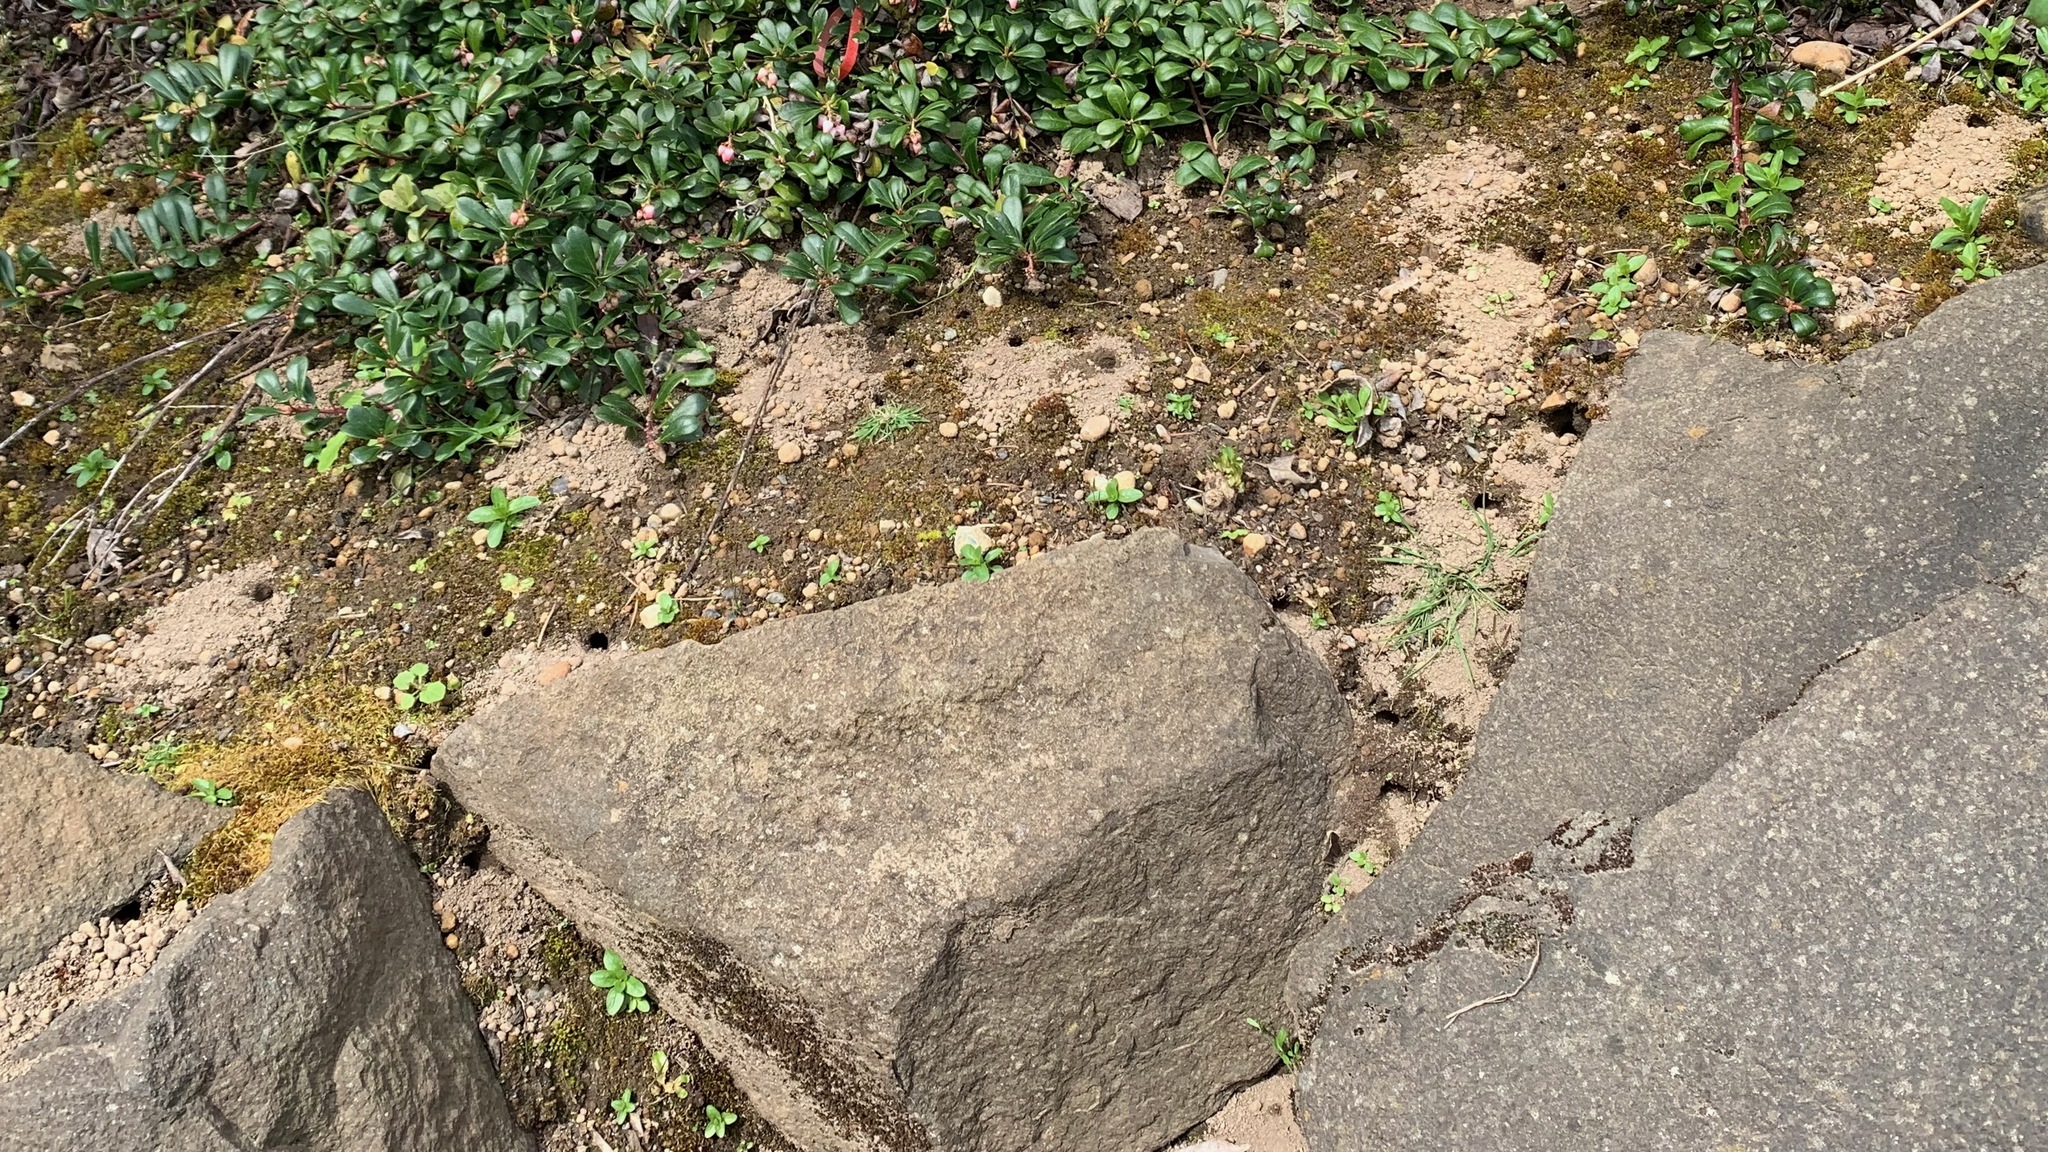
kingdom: Animalia
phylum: Arthropoda
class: Insecta
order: Hymenoptera
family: Apidae
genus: Anthophora
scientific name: Anthophora pacifica
